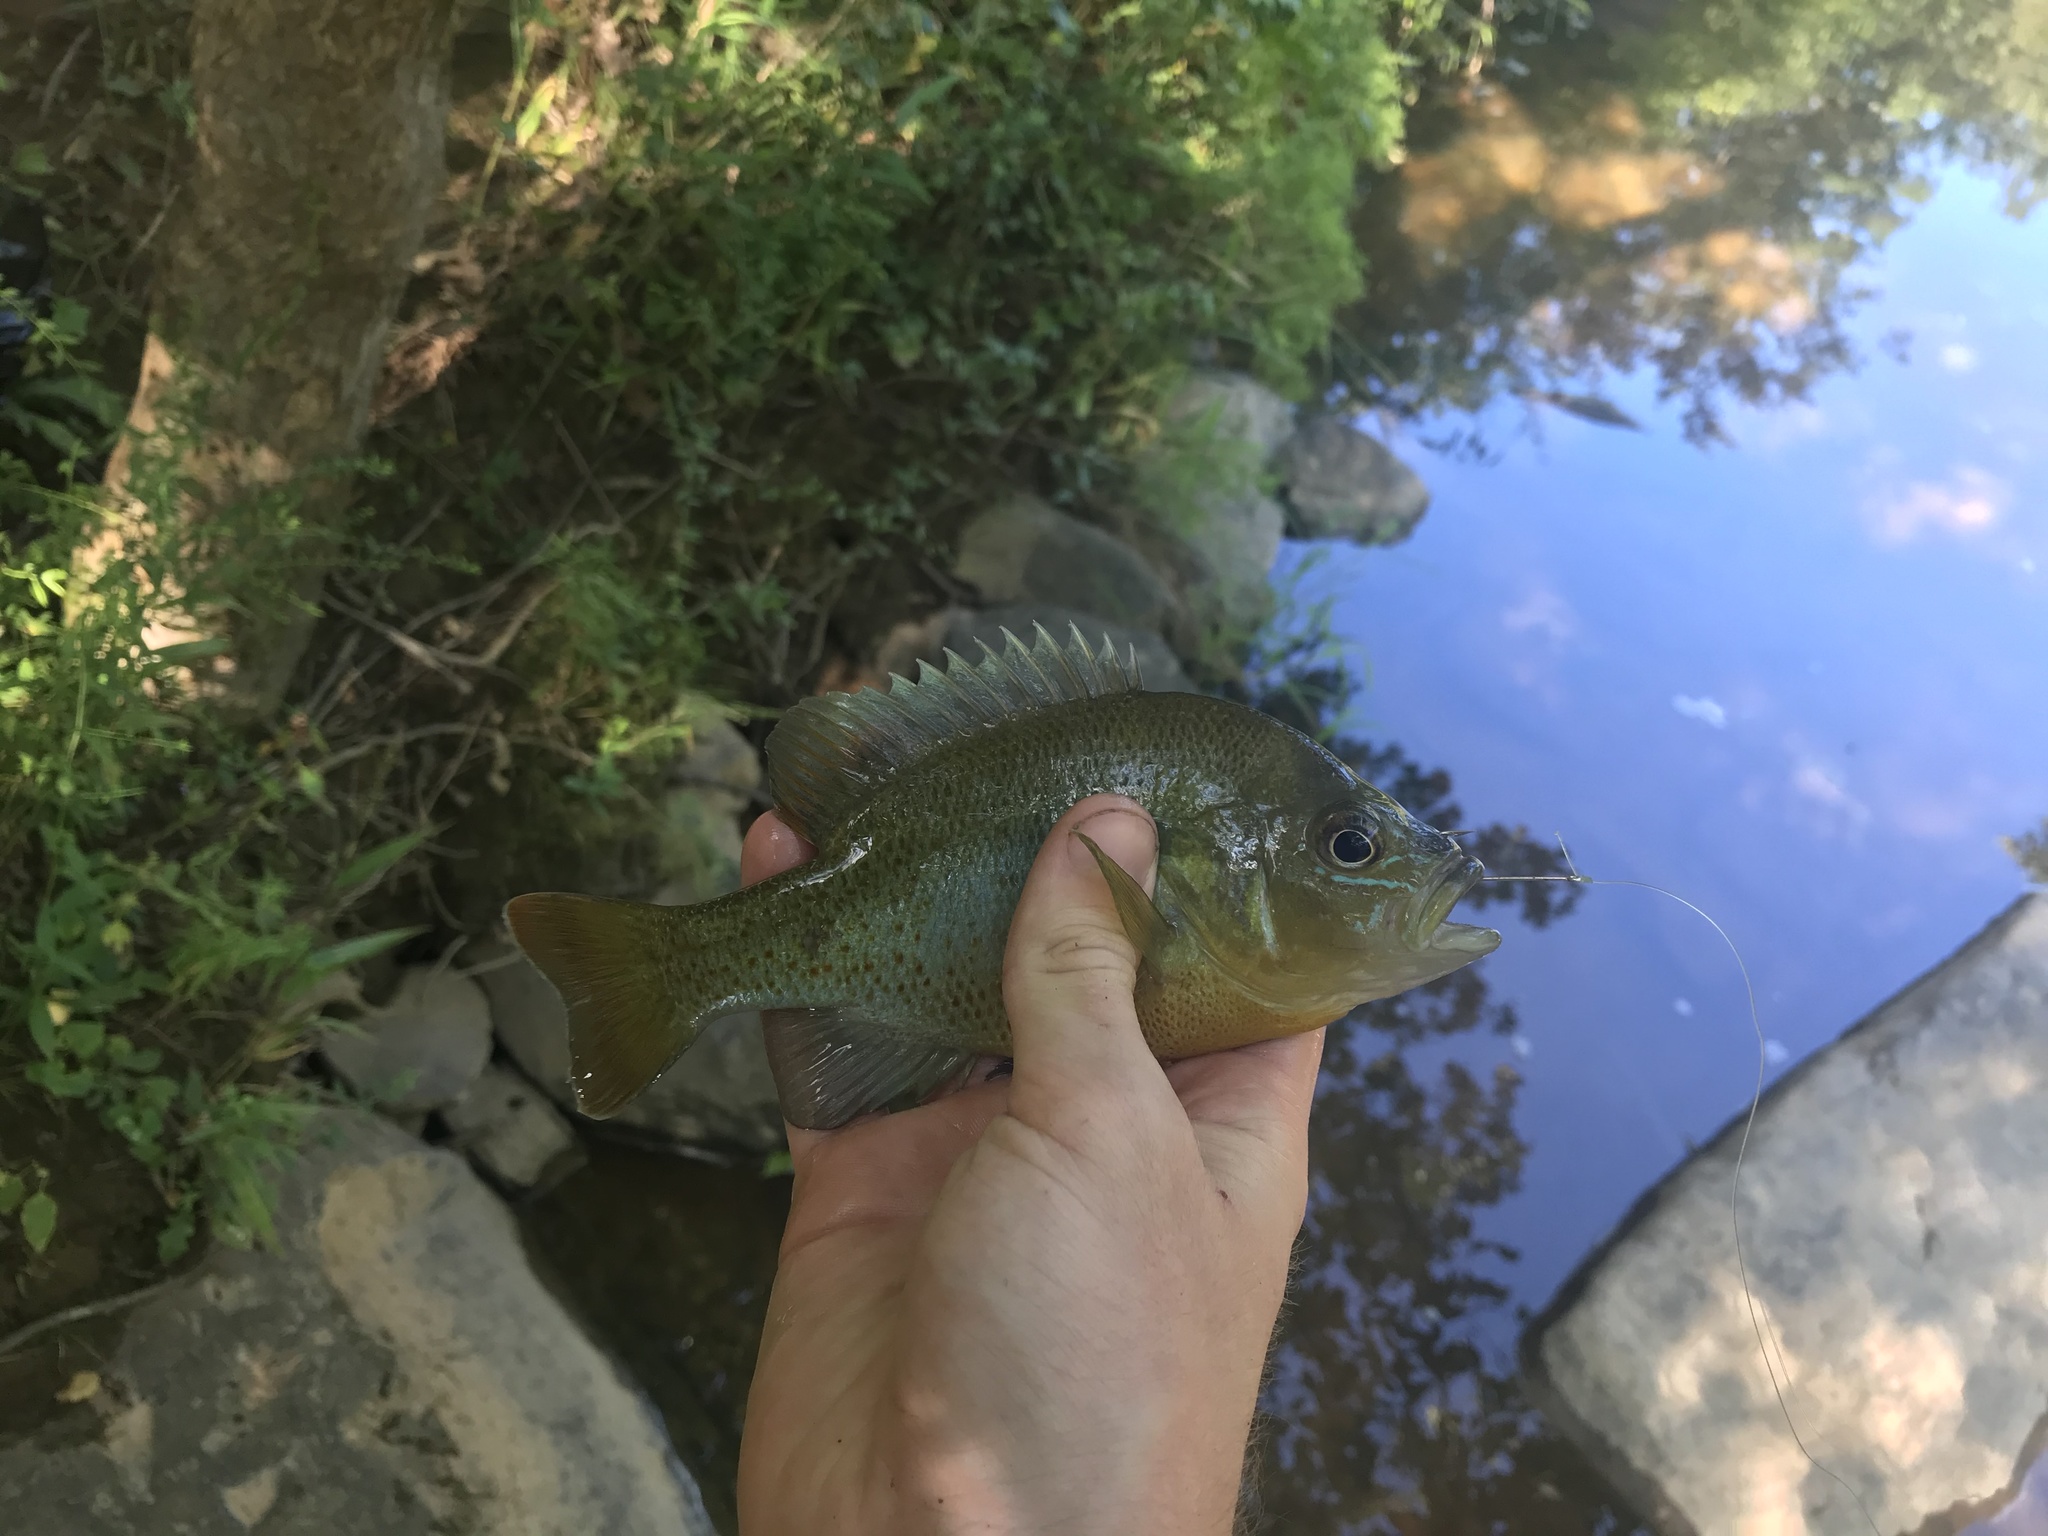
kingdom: Animalia
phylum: Chordata
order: Perciformes
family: Centrarchidae
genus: Lepomis
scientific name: Lepomis auritus
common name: Redbreast sunfish
